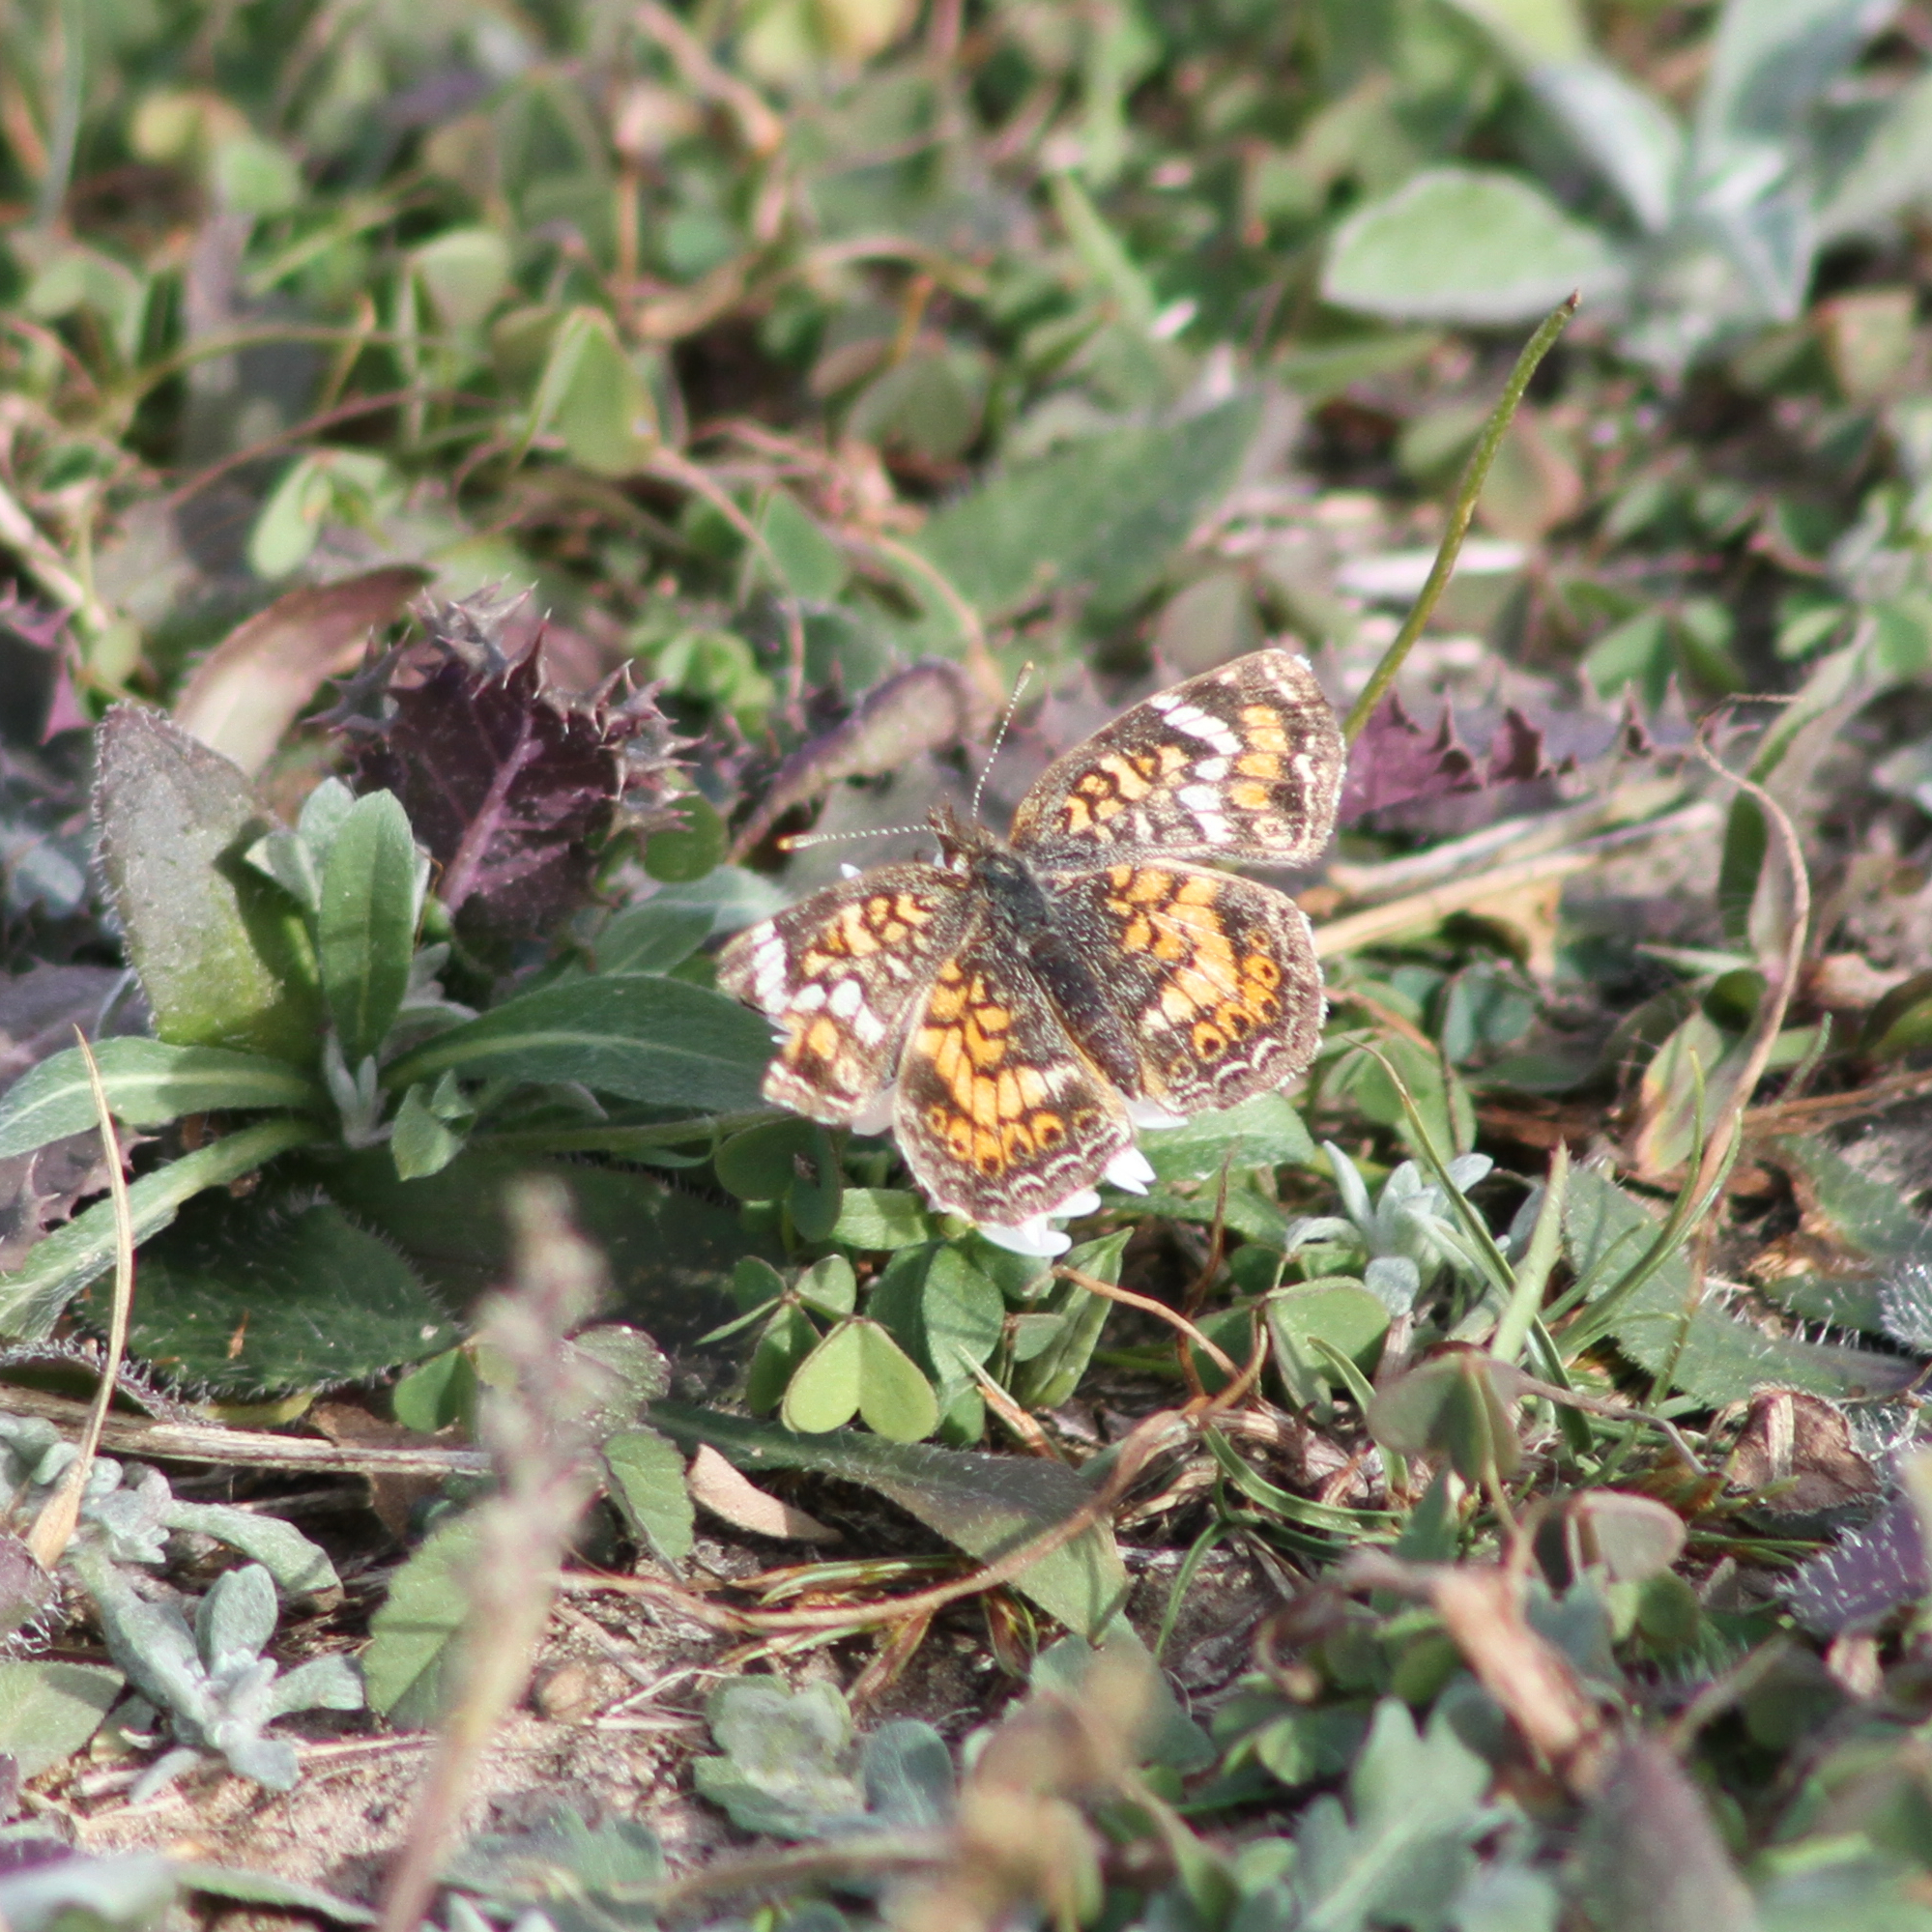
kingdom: Animalia
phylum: Arthropoda
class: Insecta
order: Lepidoptera
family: Nymphalidae
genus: Phyciodes
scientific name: Phyciodes phaon
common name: Phaon crescent
